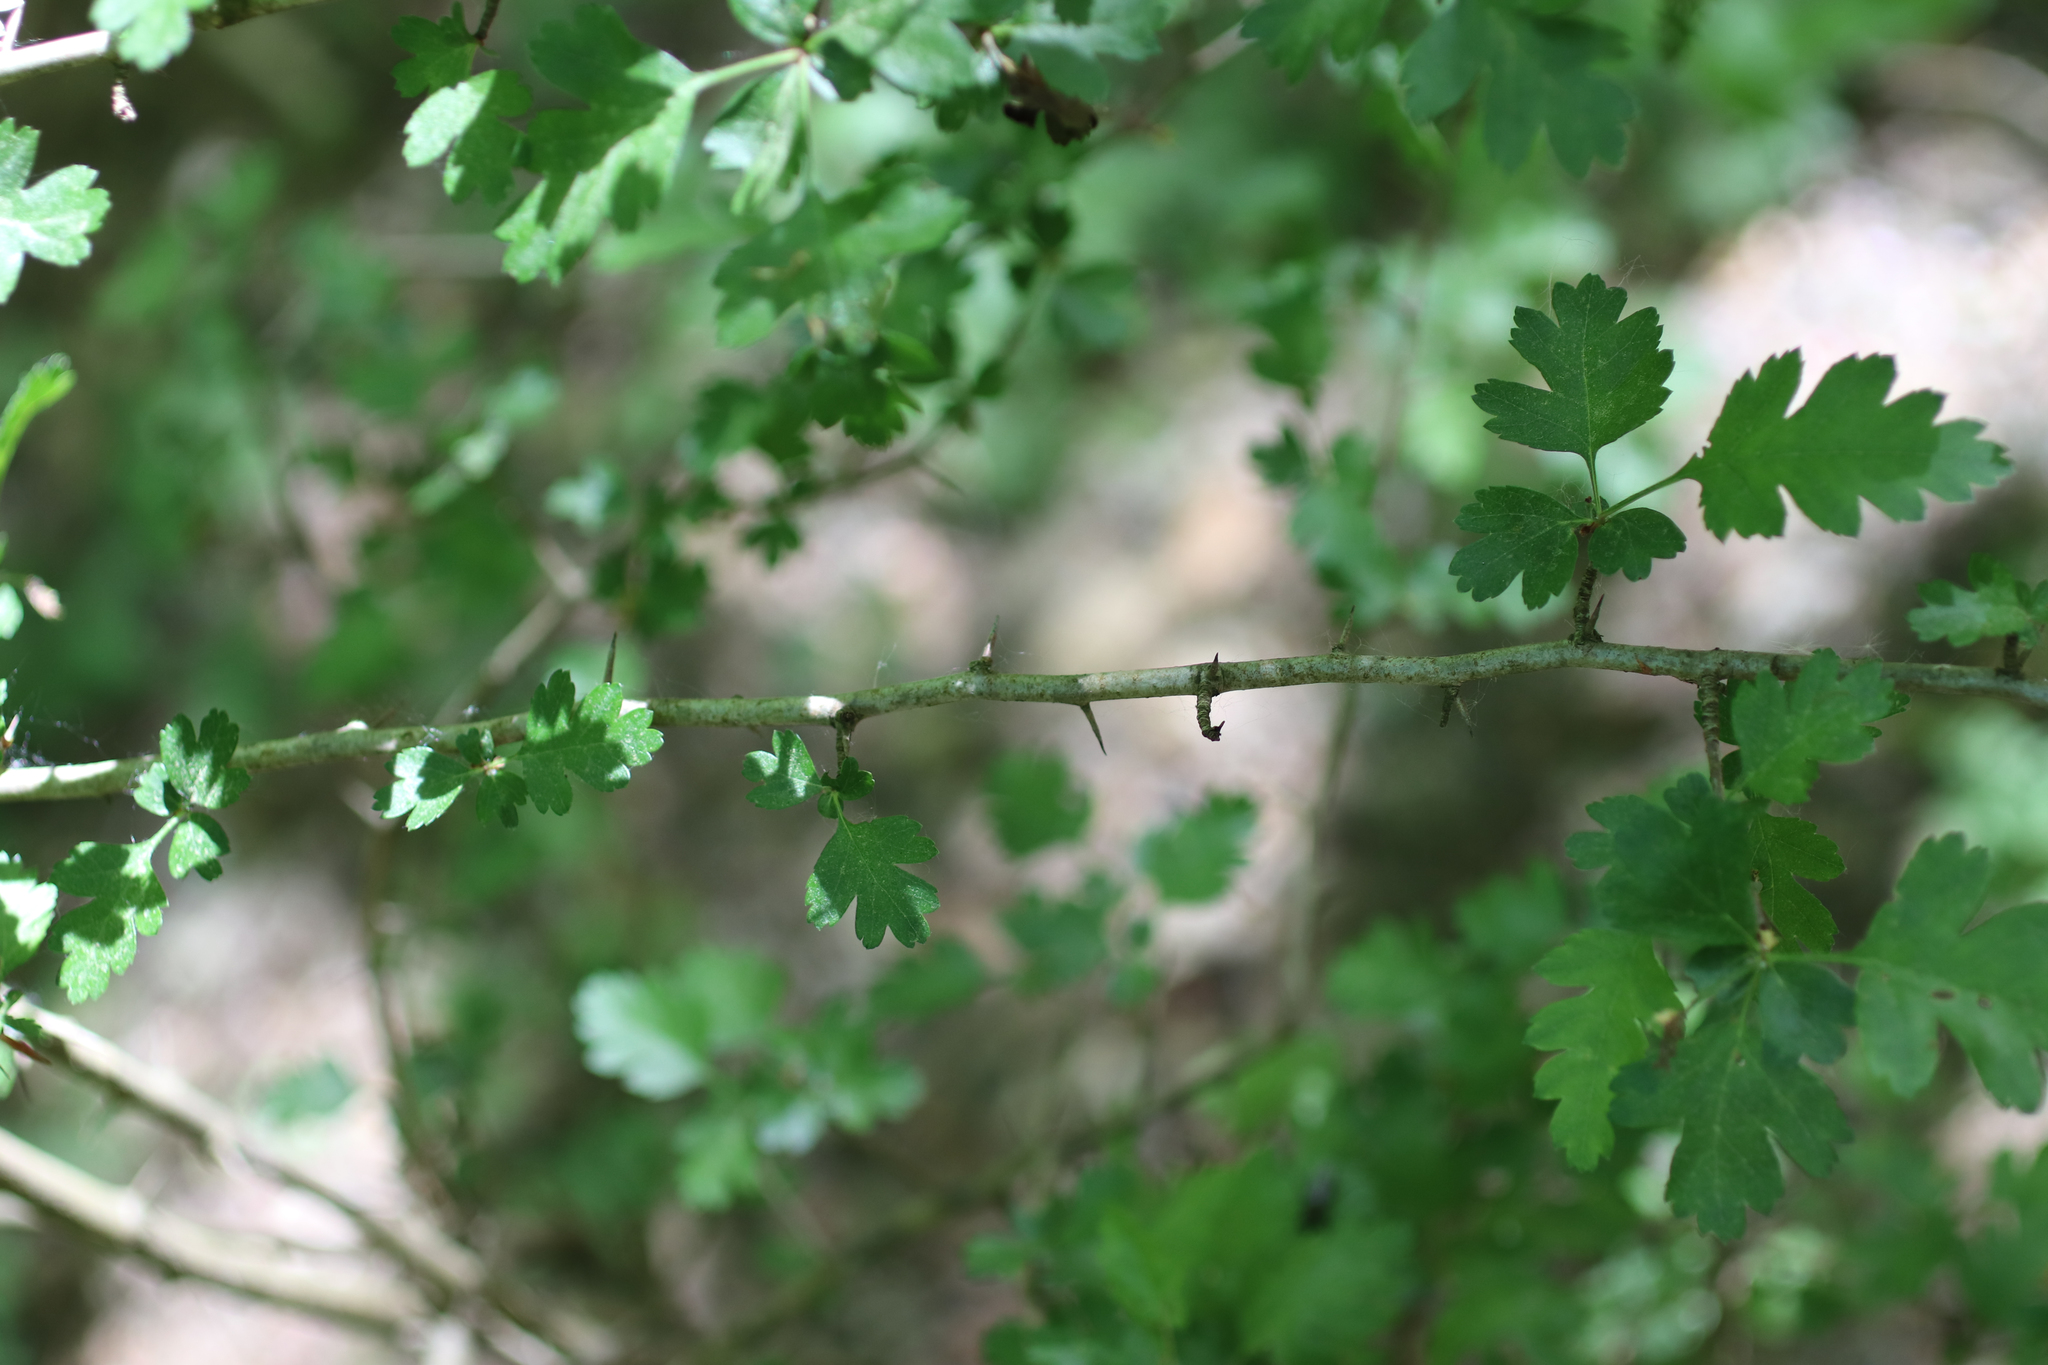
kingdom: Plantae
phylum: Tracheophyta
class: Magnoliopsida
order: Rosales
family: Rosaceae
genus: Crataegus
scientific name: Crataegus monogyna
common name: Hawthorn
